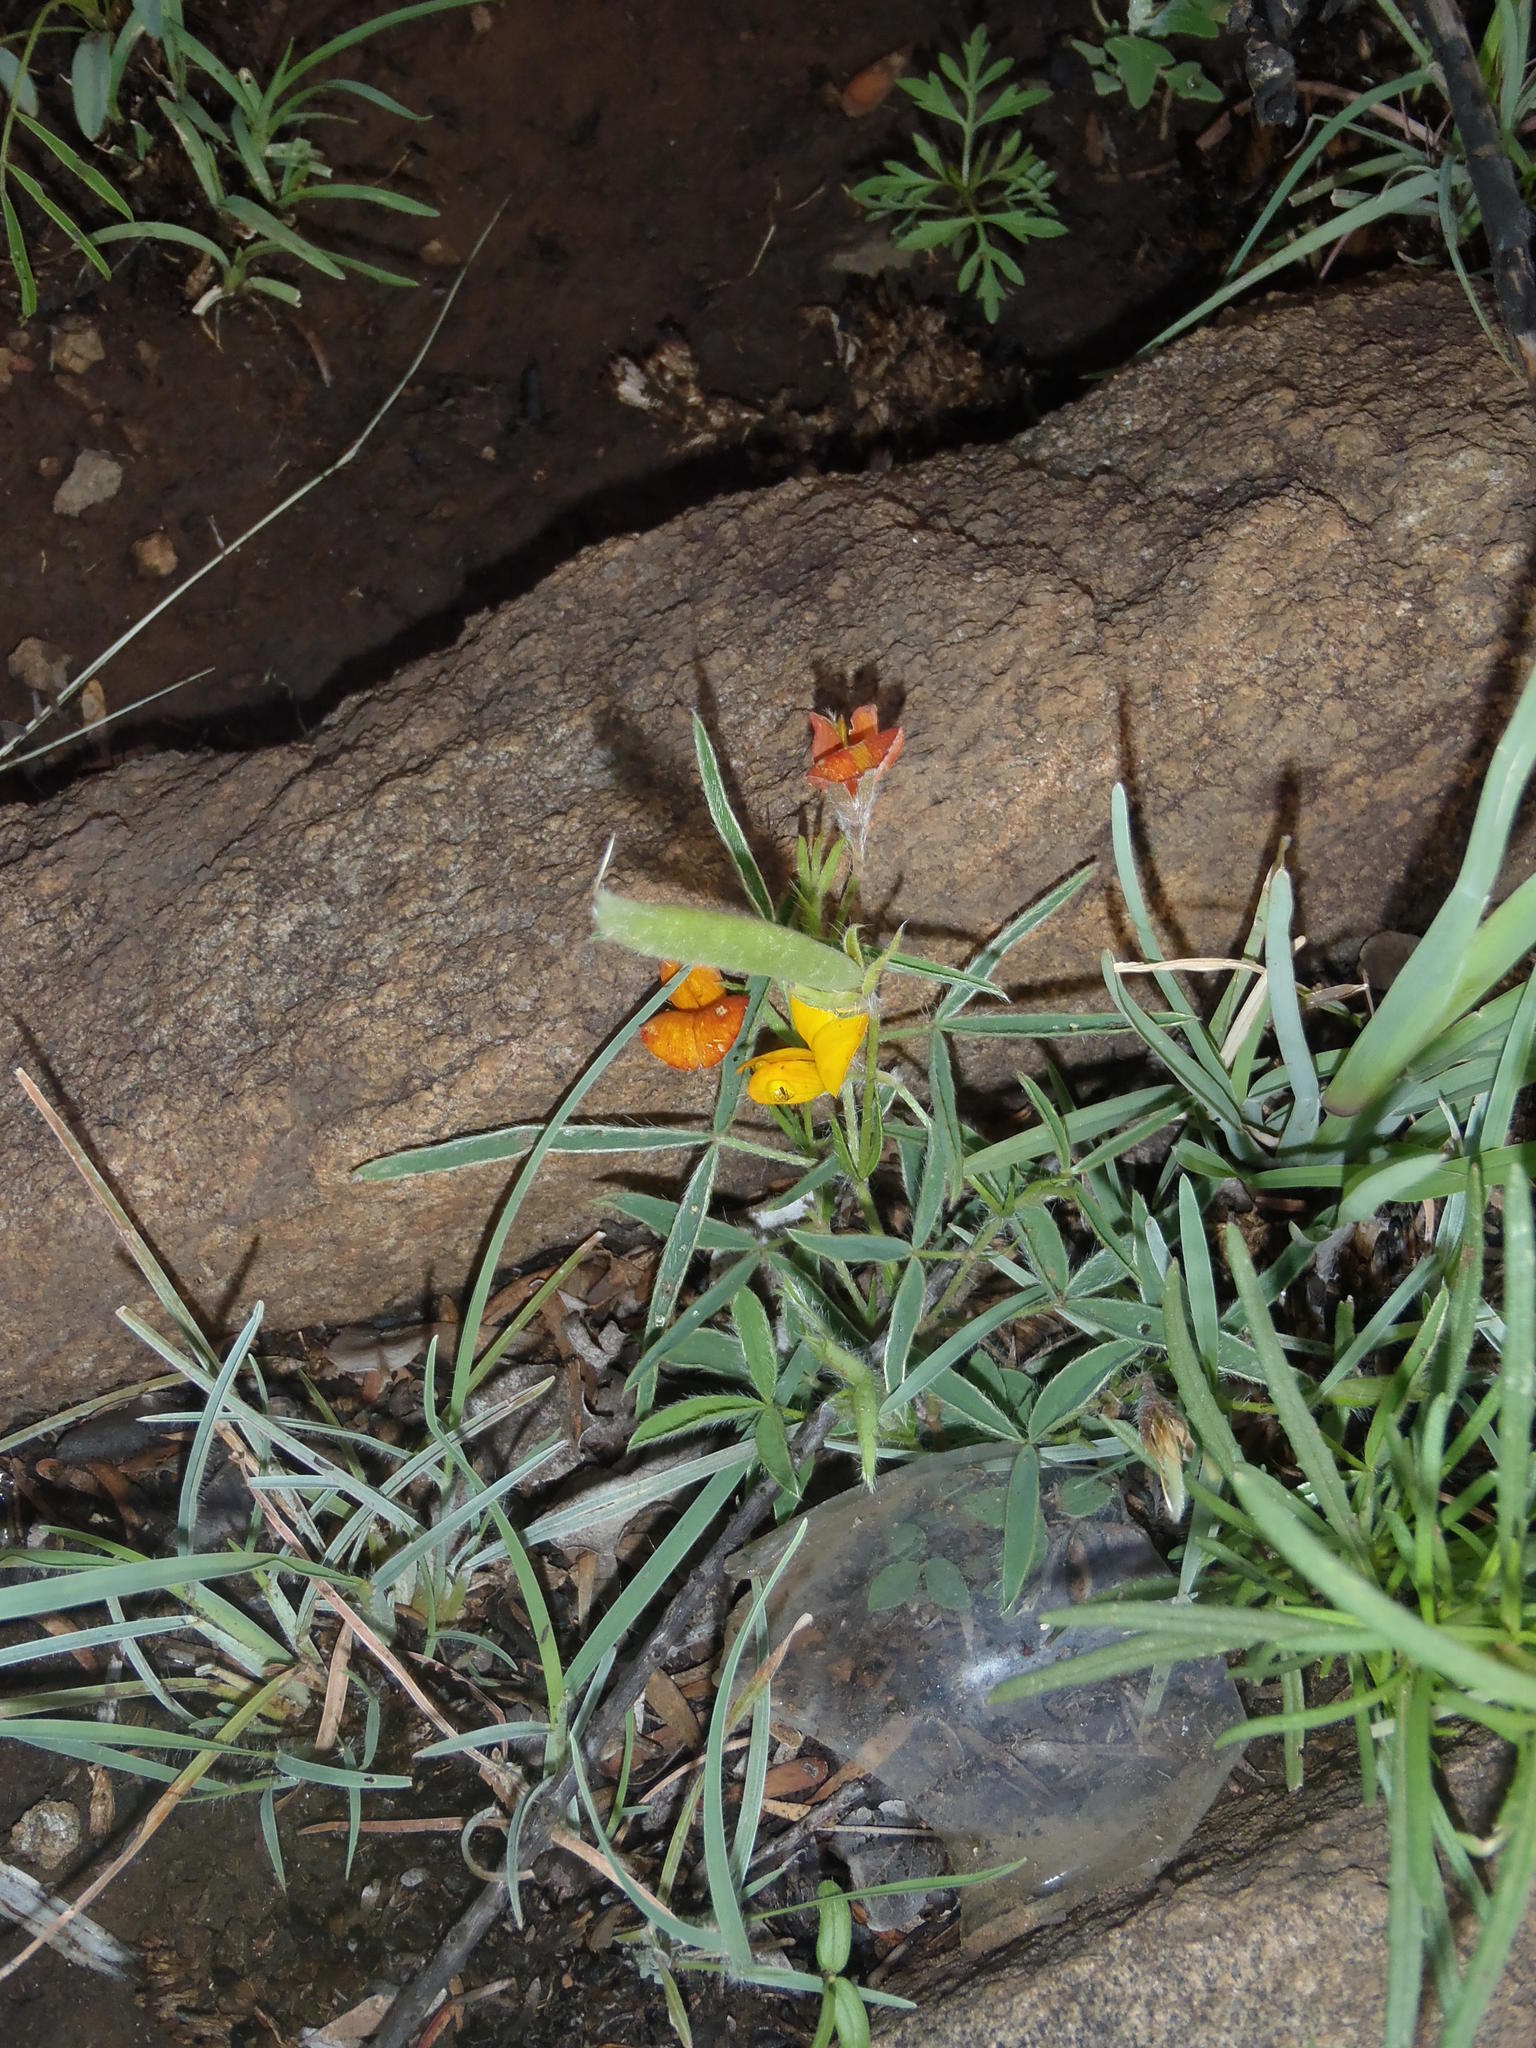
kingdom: Plantae
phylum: Tracheophyta
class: Magnoliopsida
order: Fabales
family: Fabaceae
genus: Argyrolobium
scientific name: Argyrolobium pauciflorum
